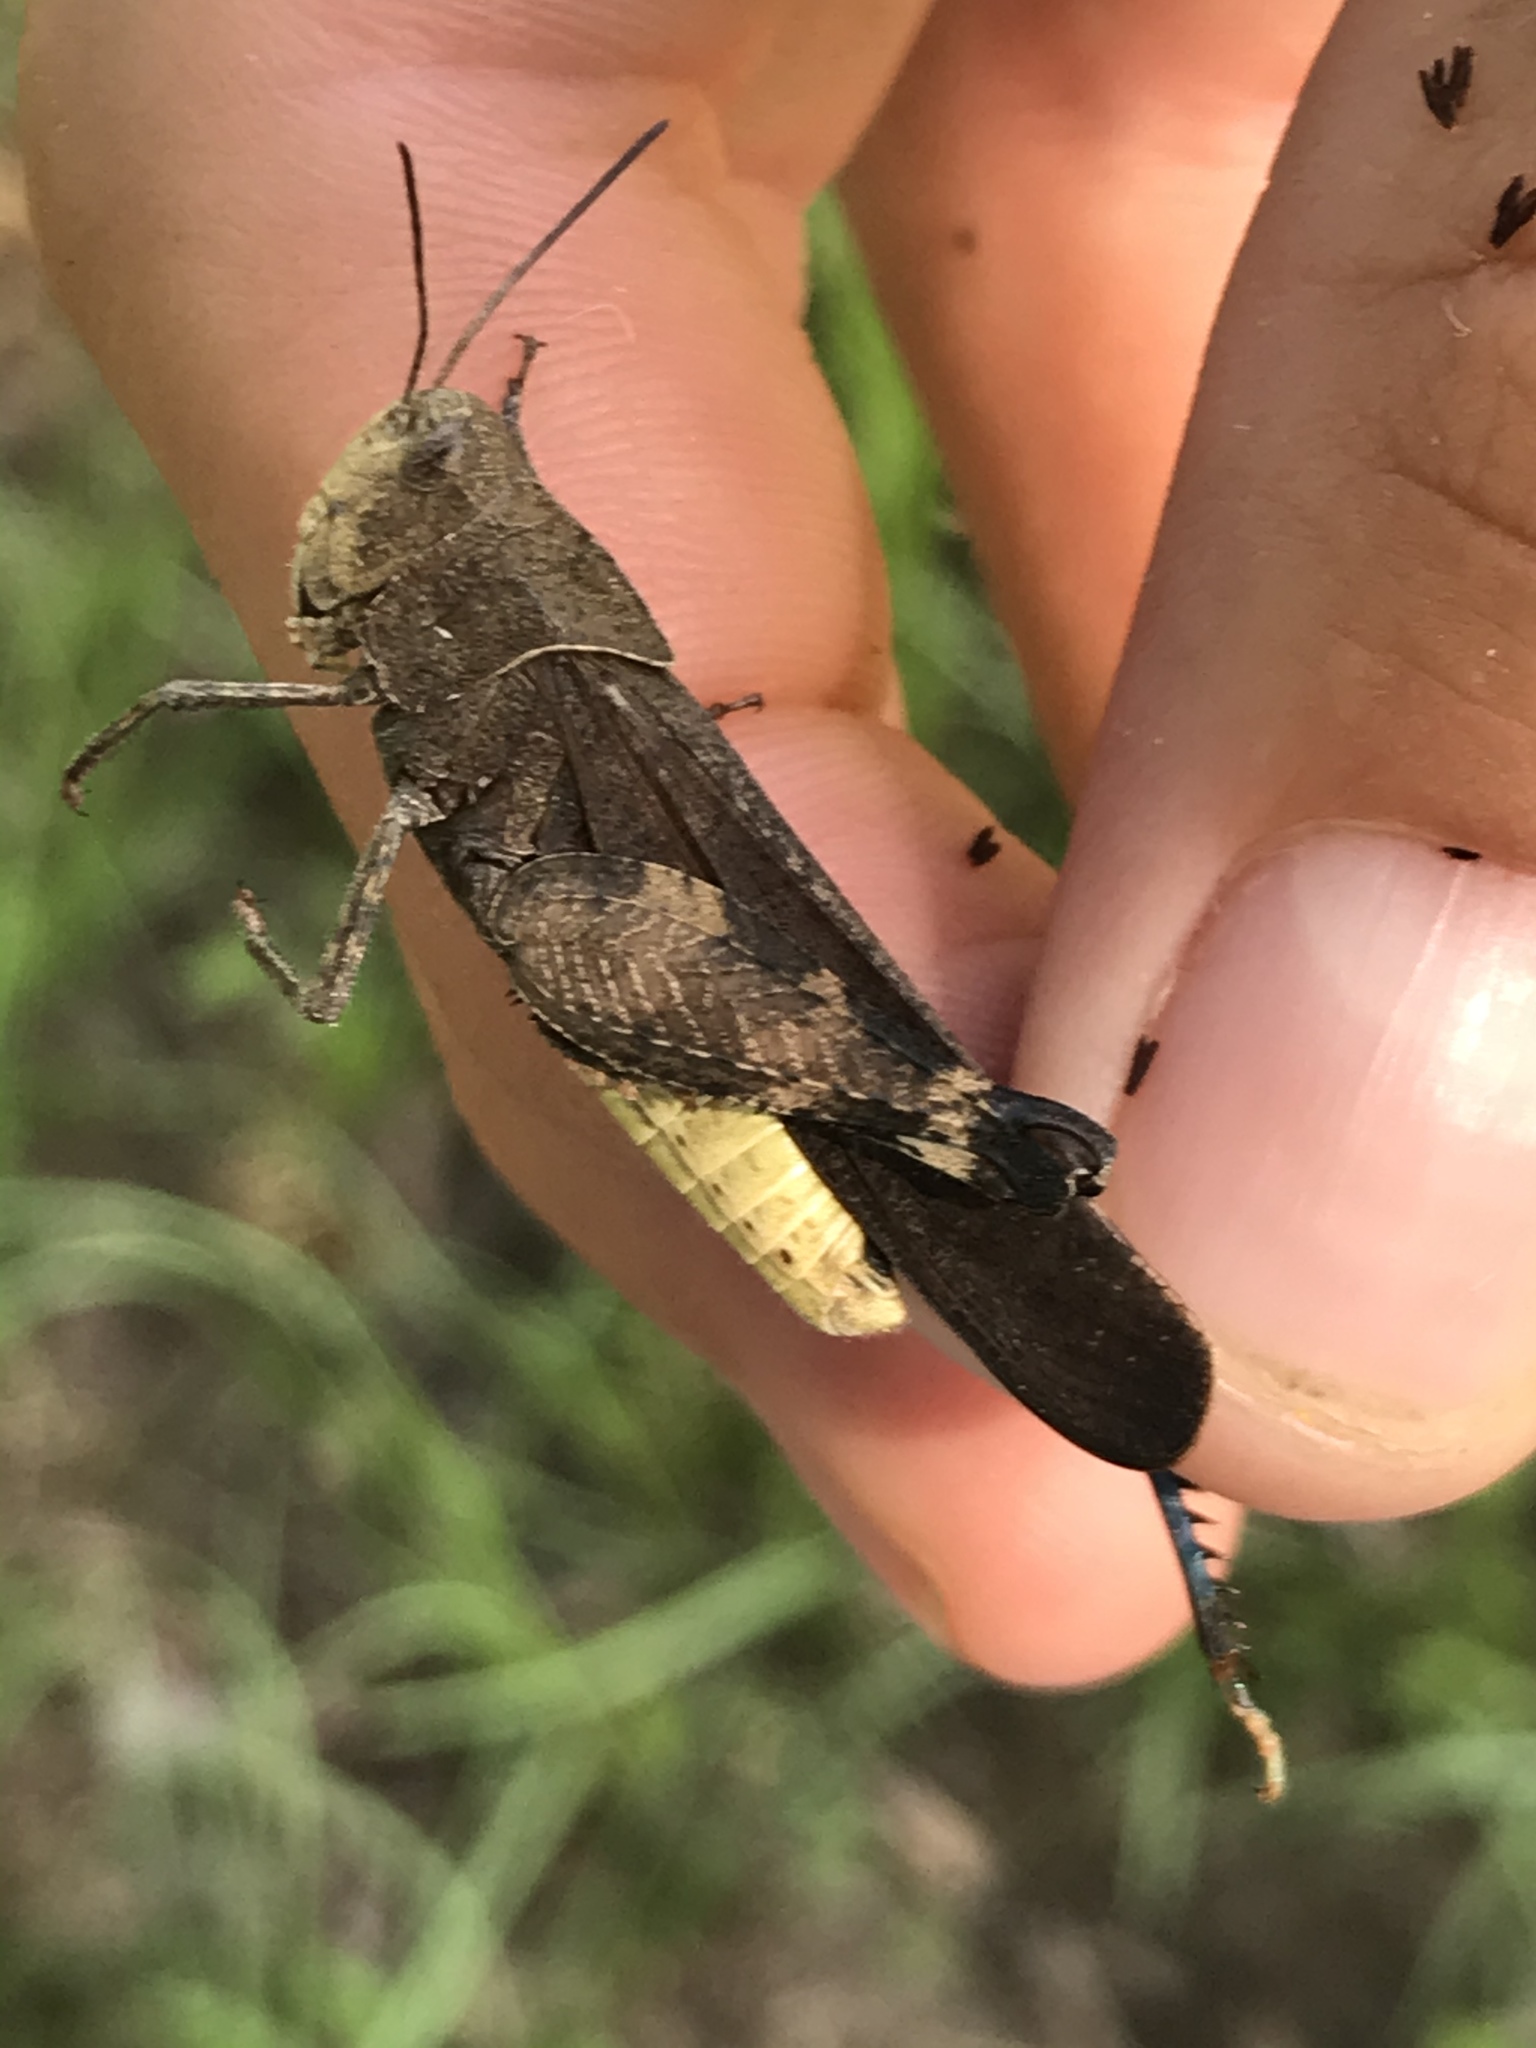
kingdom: Animalia
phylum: Arthropoda
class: Insecta
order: Orthoptera
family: Acrididae
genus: Arphia
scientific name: Arphia simplex
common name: Plains yellow-winged grasshopper
